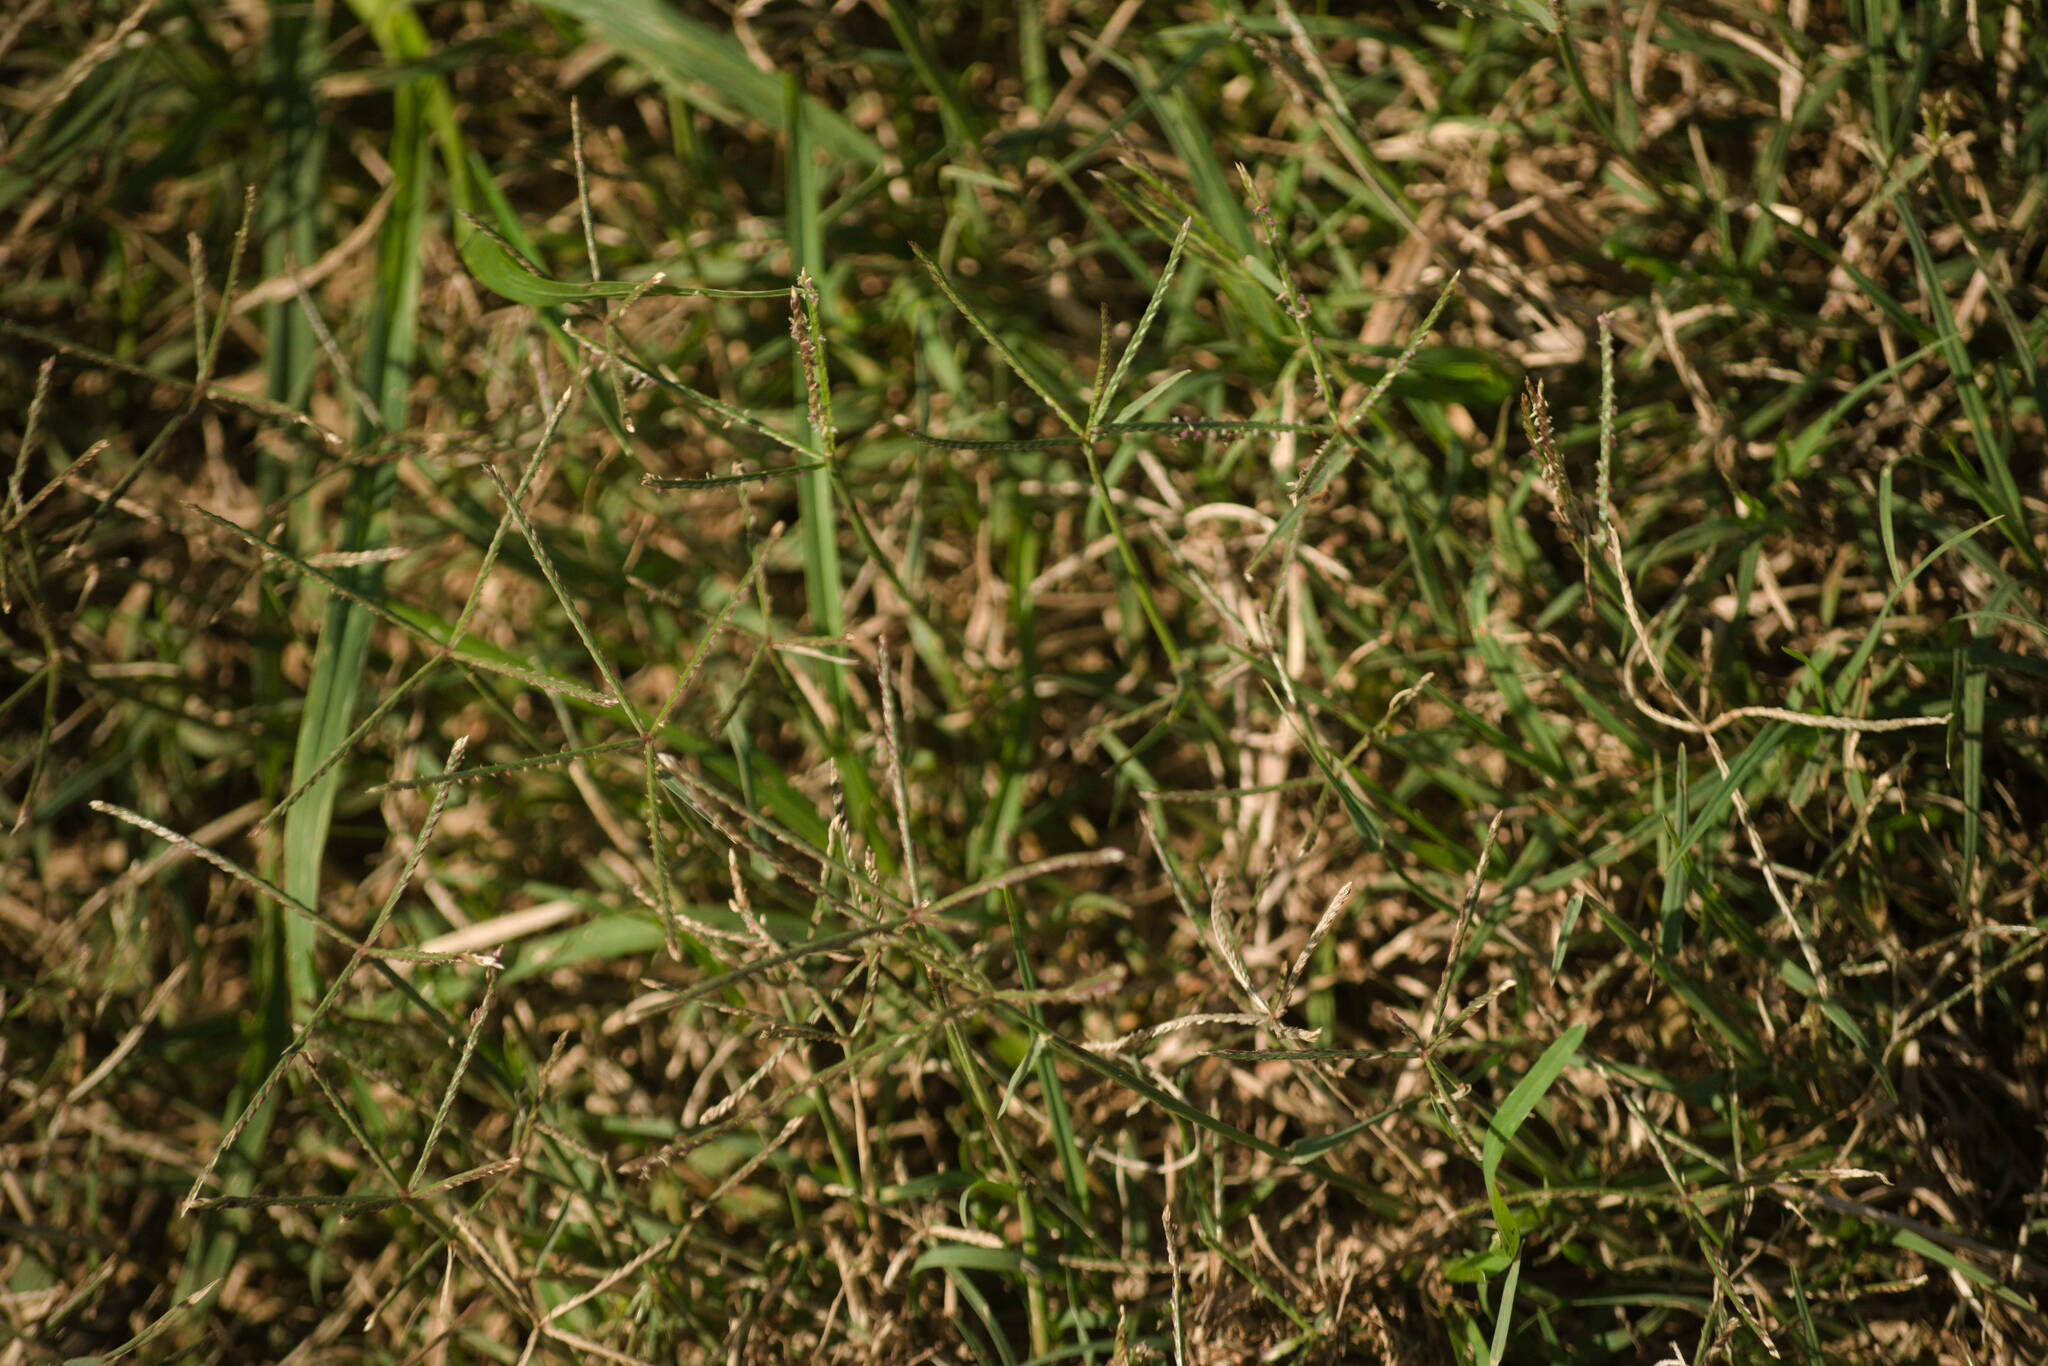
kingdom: Plantae
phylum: Tracheophyta
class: Liliopsida
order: Poales
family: Poaceae
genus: Cynodon
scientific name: Cynodon dactylon
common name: Bermuda grass
